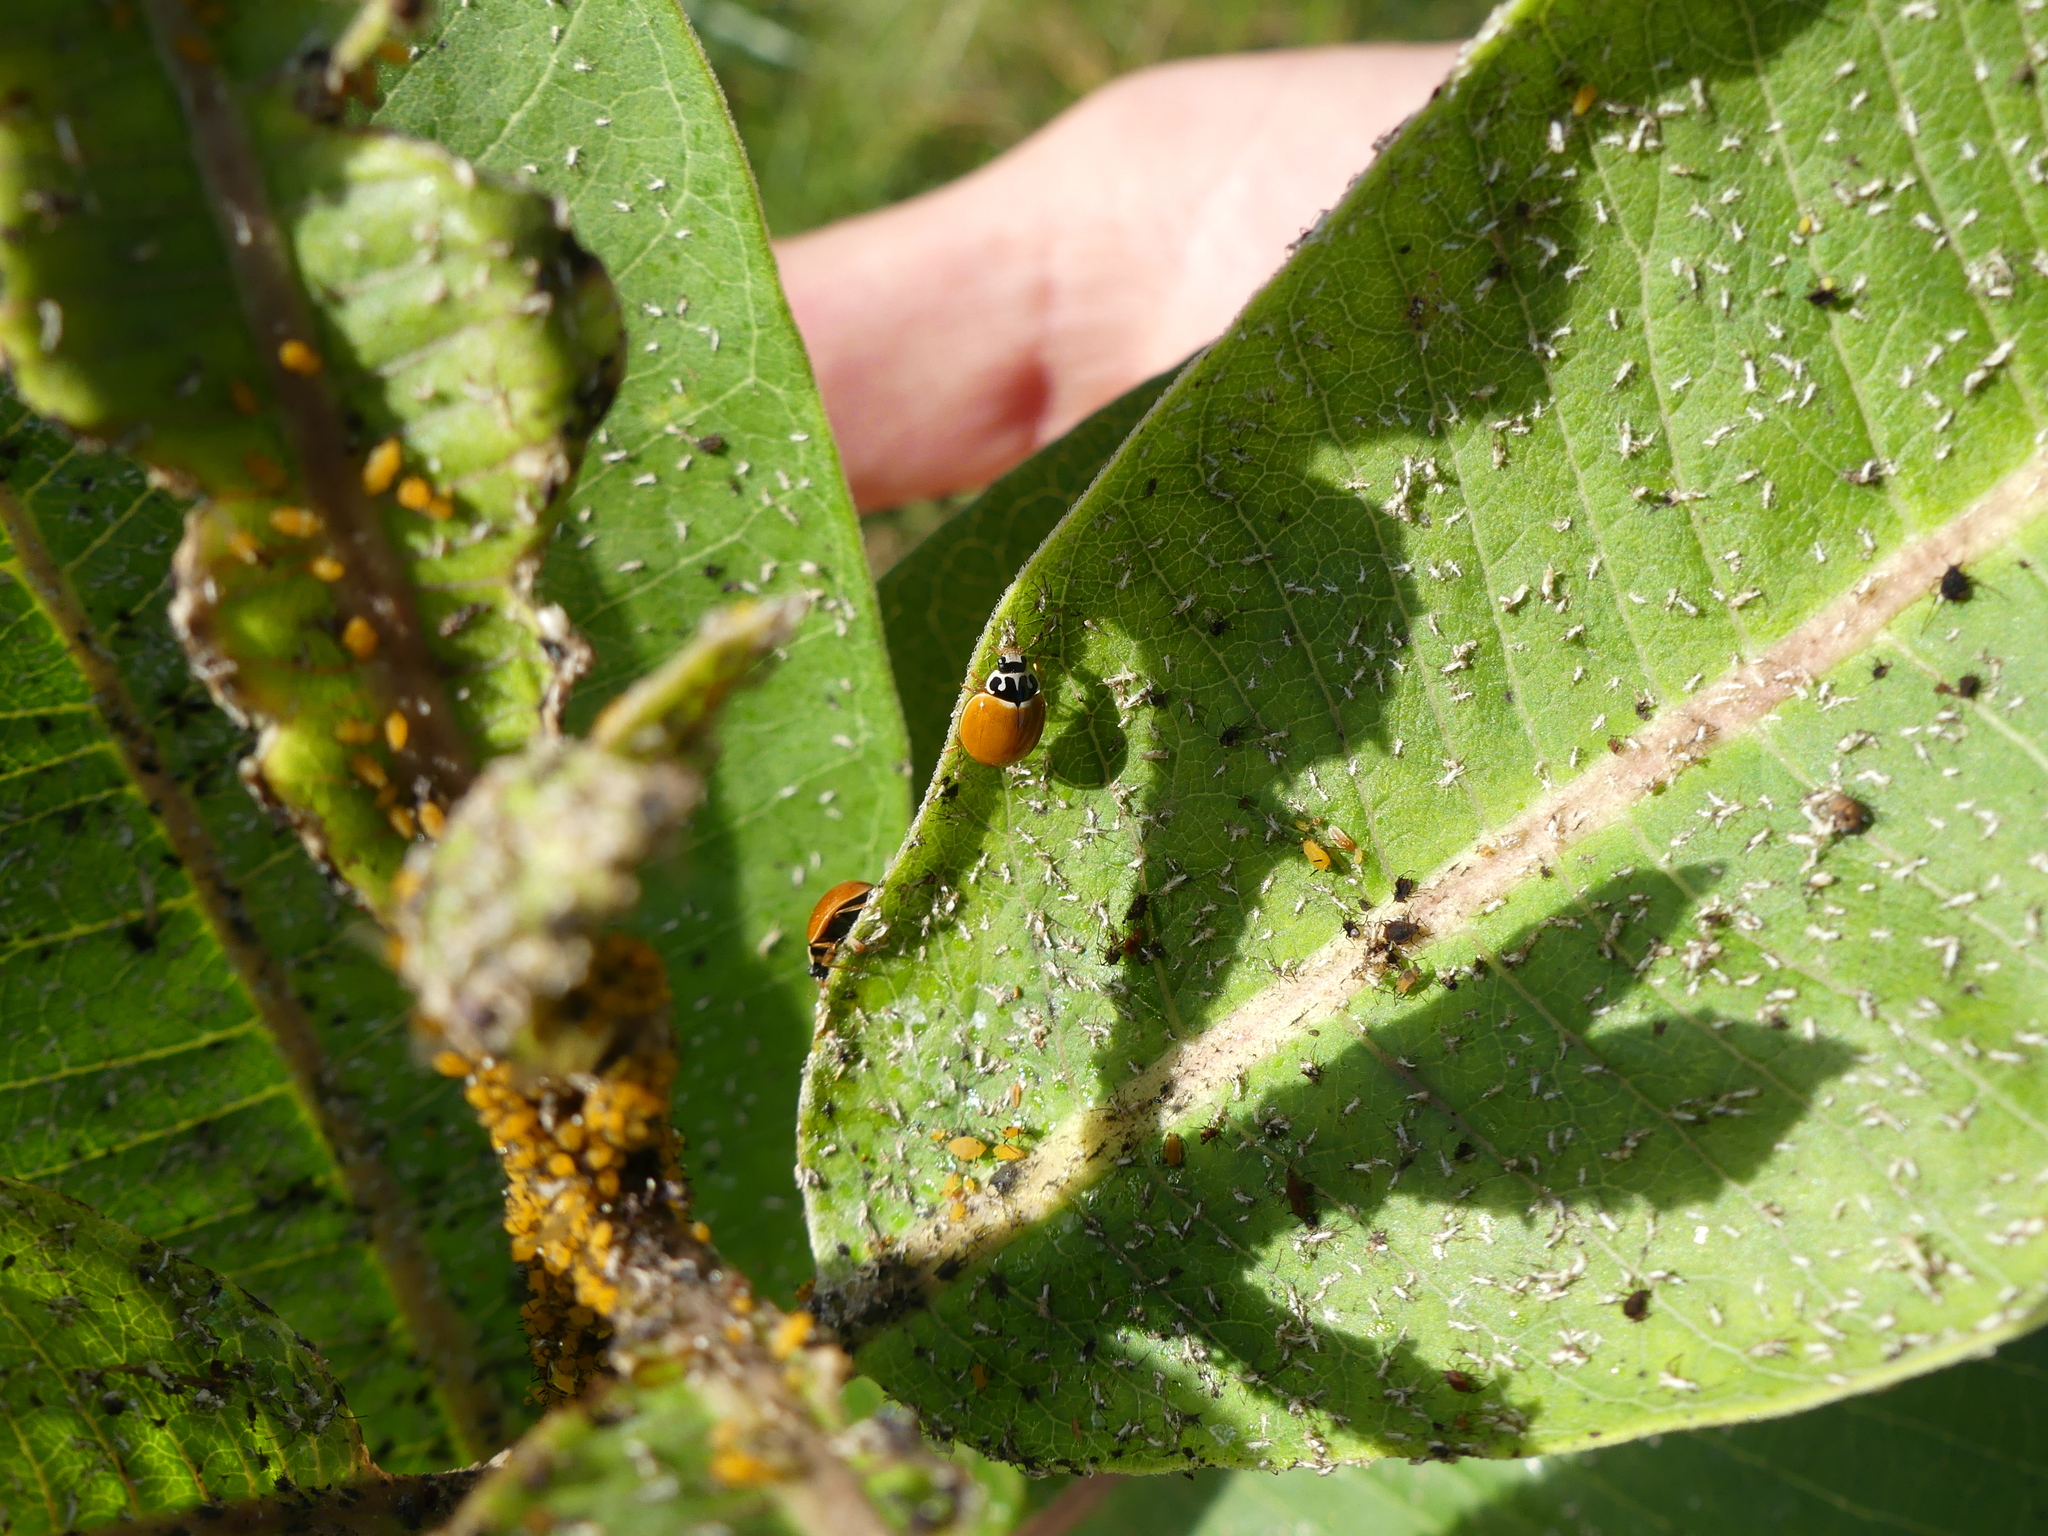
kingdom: Animalia
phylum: Arthropoda
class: Insecta
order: Coleoptera
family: Coccinellidae
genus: Cycloneda
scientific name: Cycloneda munda
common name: Polished lady beetle
